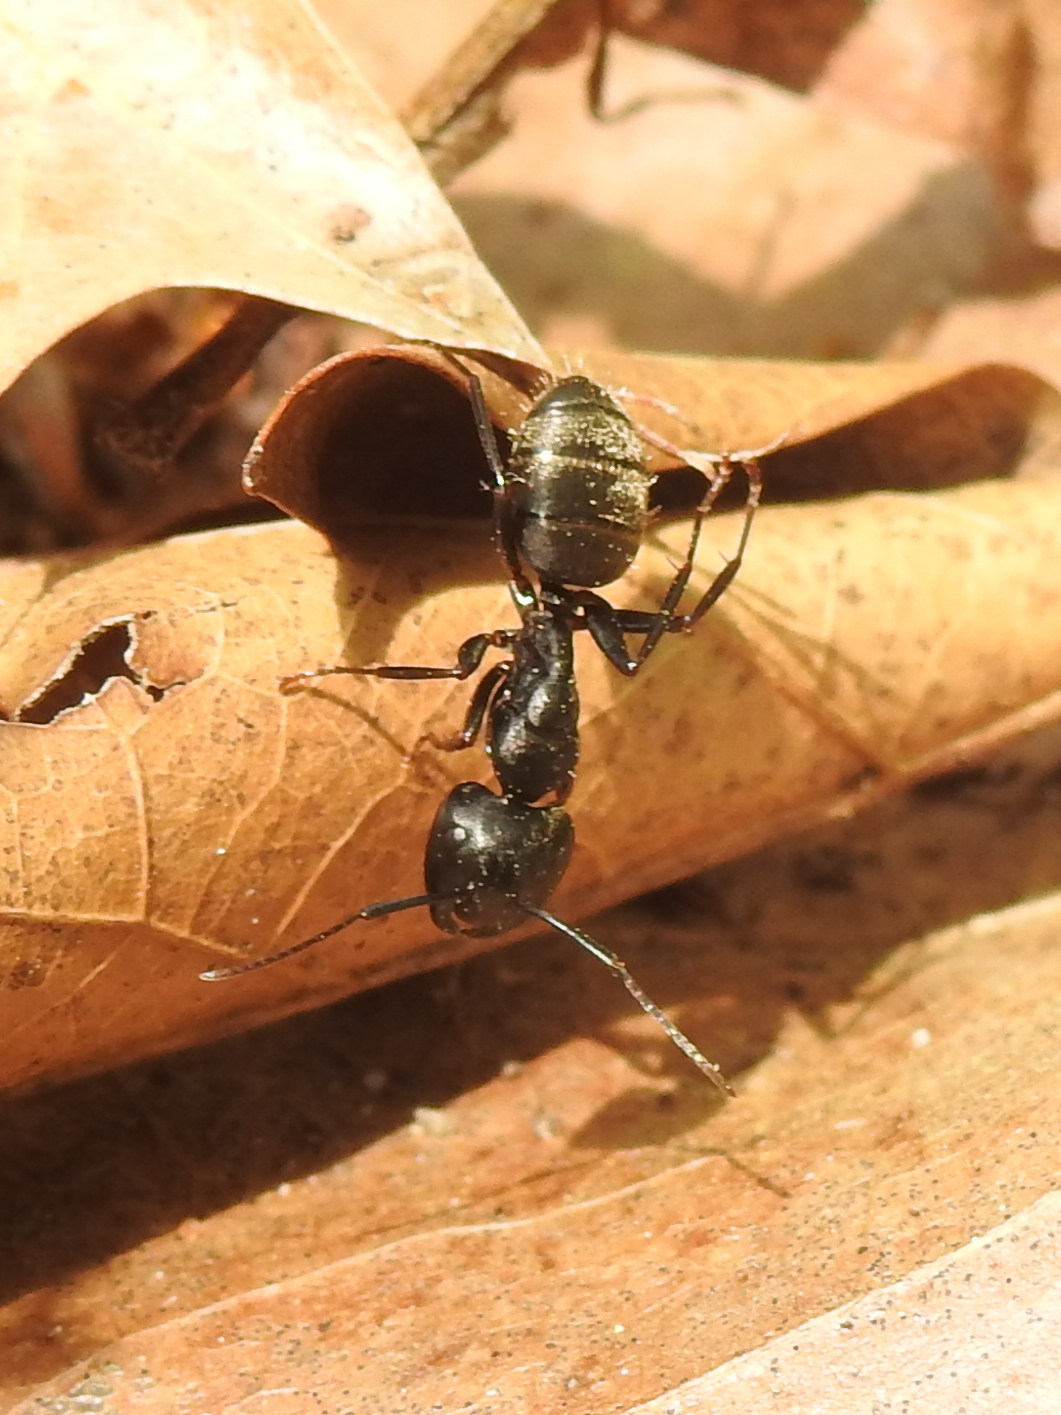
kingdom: Animalia
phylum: Arthropoda
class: Insecta
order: Hymenoptera
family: Formicidae
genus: Camponotus
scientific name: Camponotus pennsylvanicus
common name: Black carpenter ant
